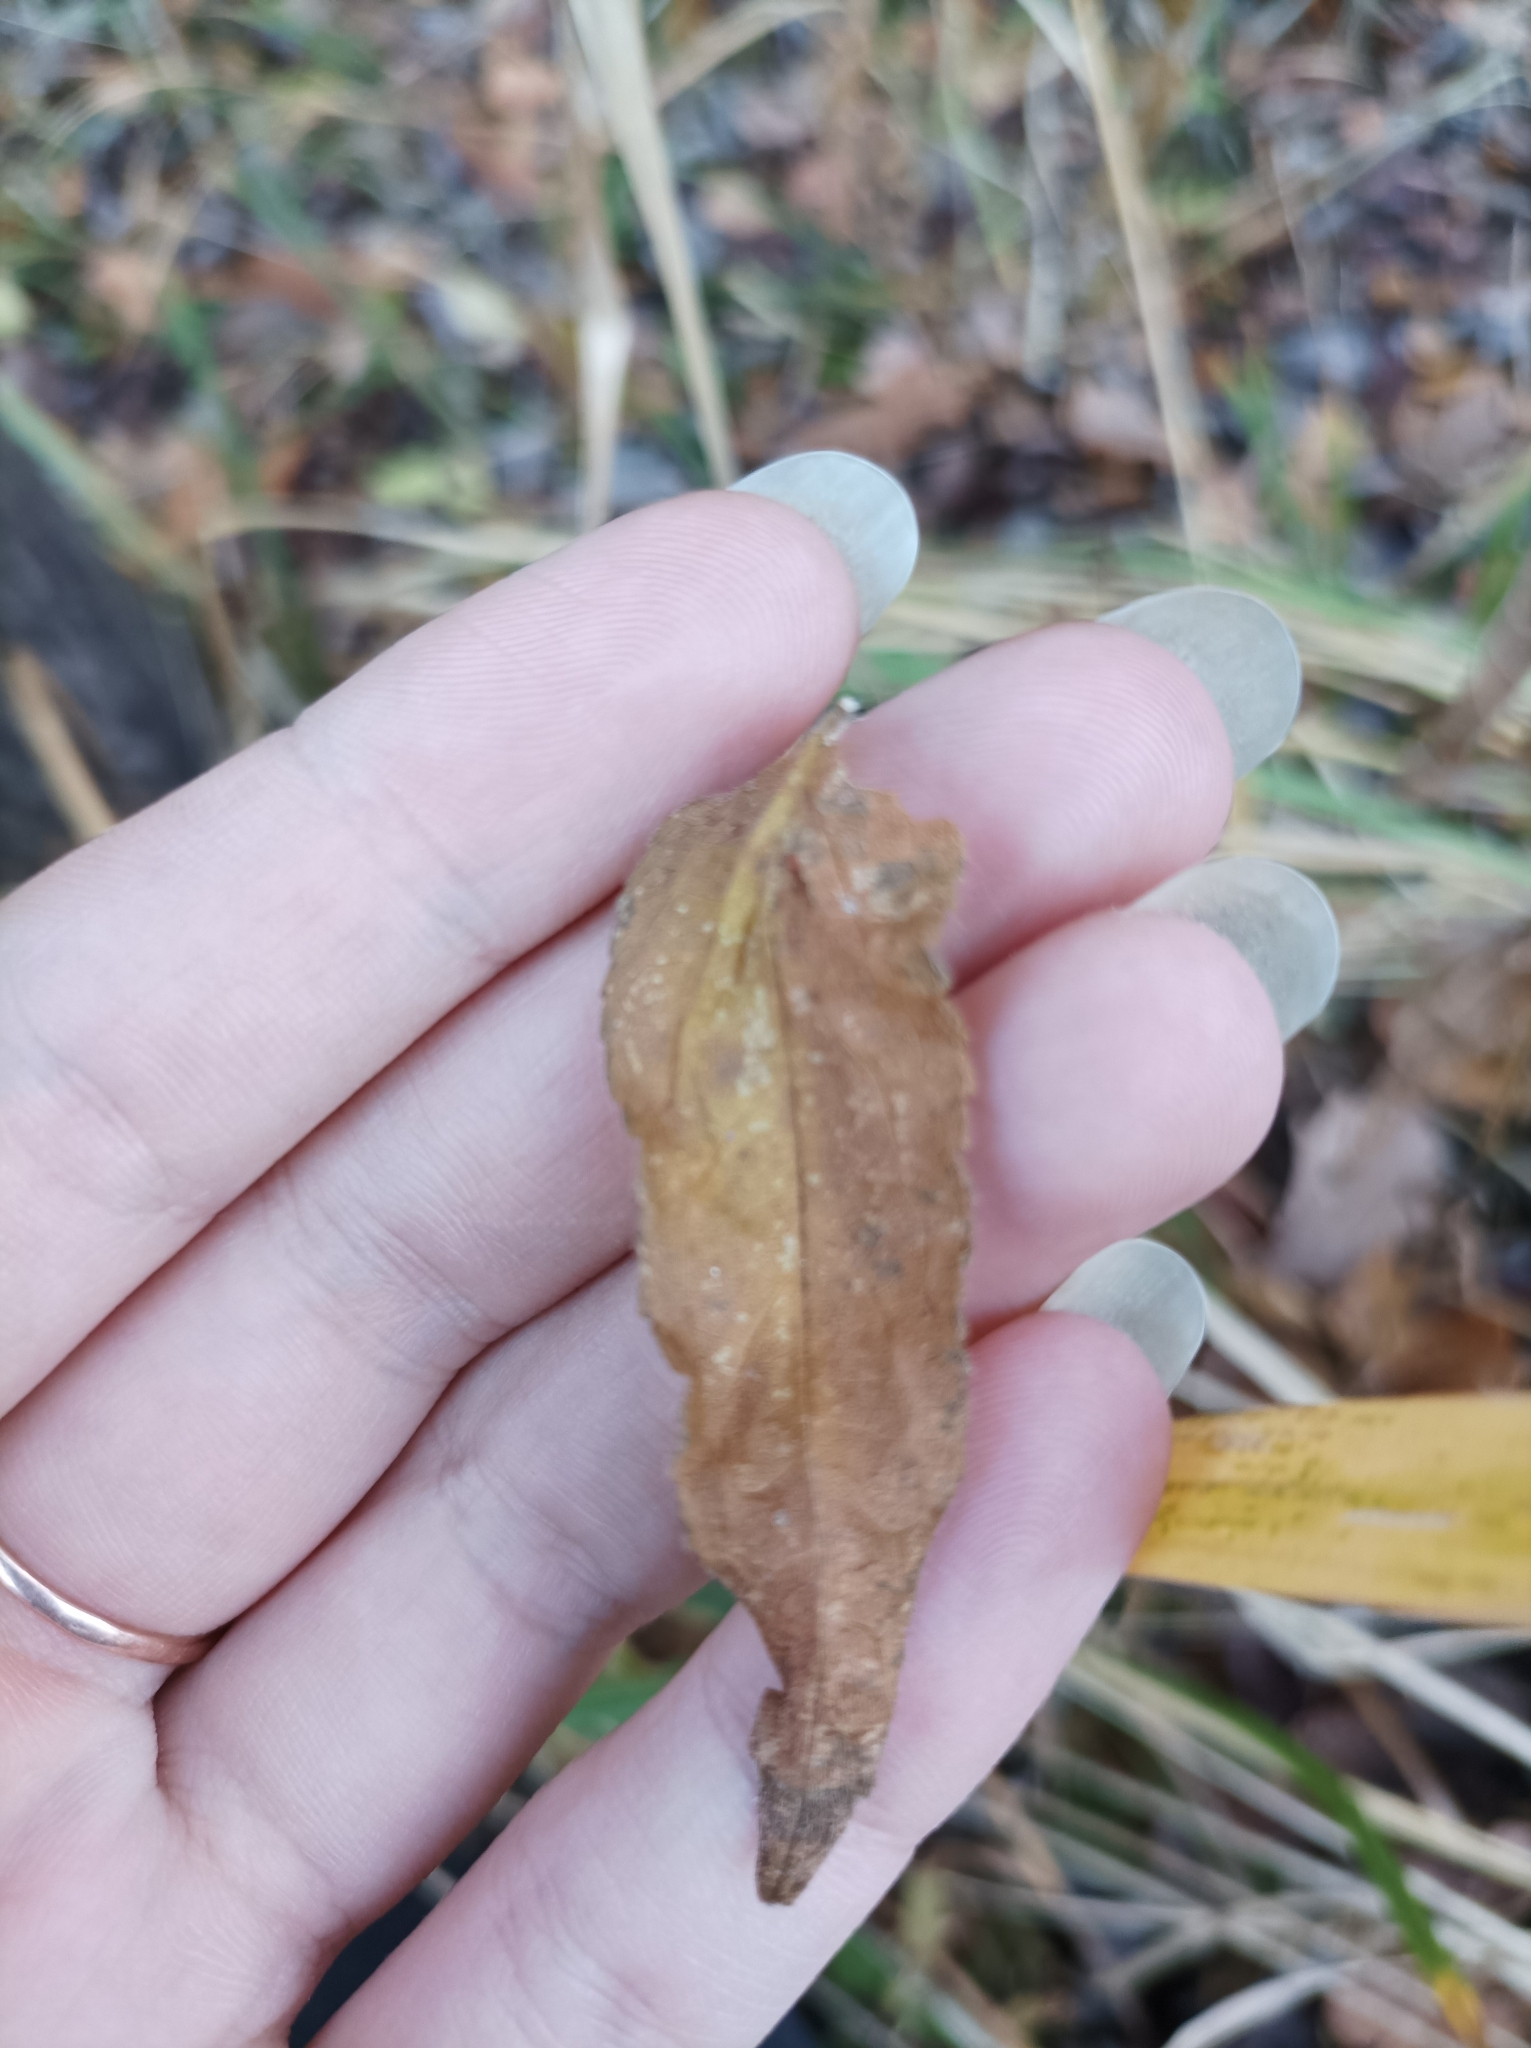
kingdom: Plantae
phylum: Tracheophyta
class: Magnoliopsida
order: Lamiales
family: Lamiaceae
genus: Stachys
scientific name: Stachys palustris
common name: Marsh woundwort
